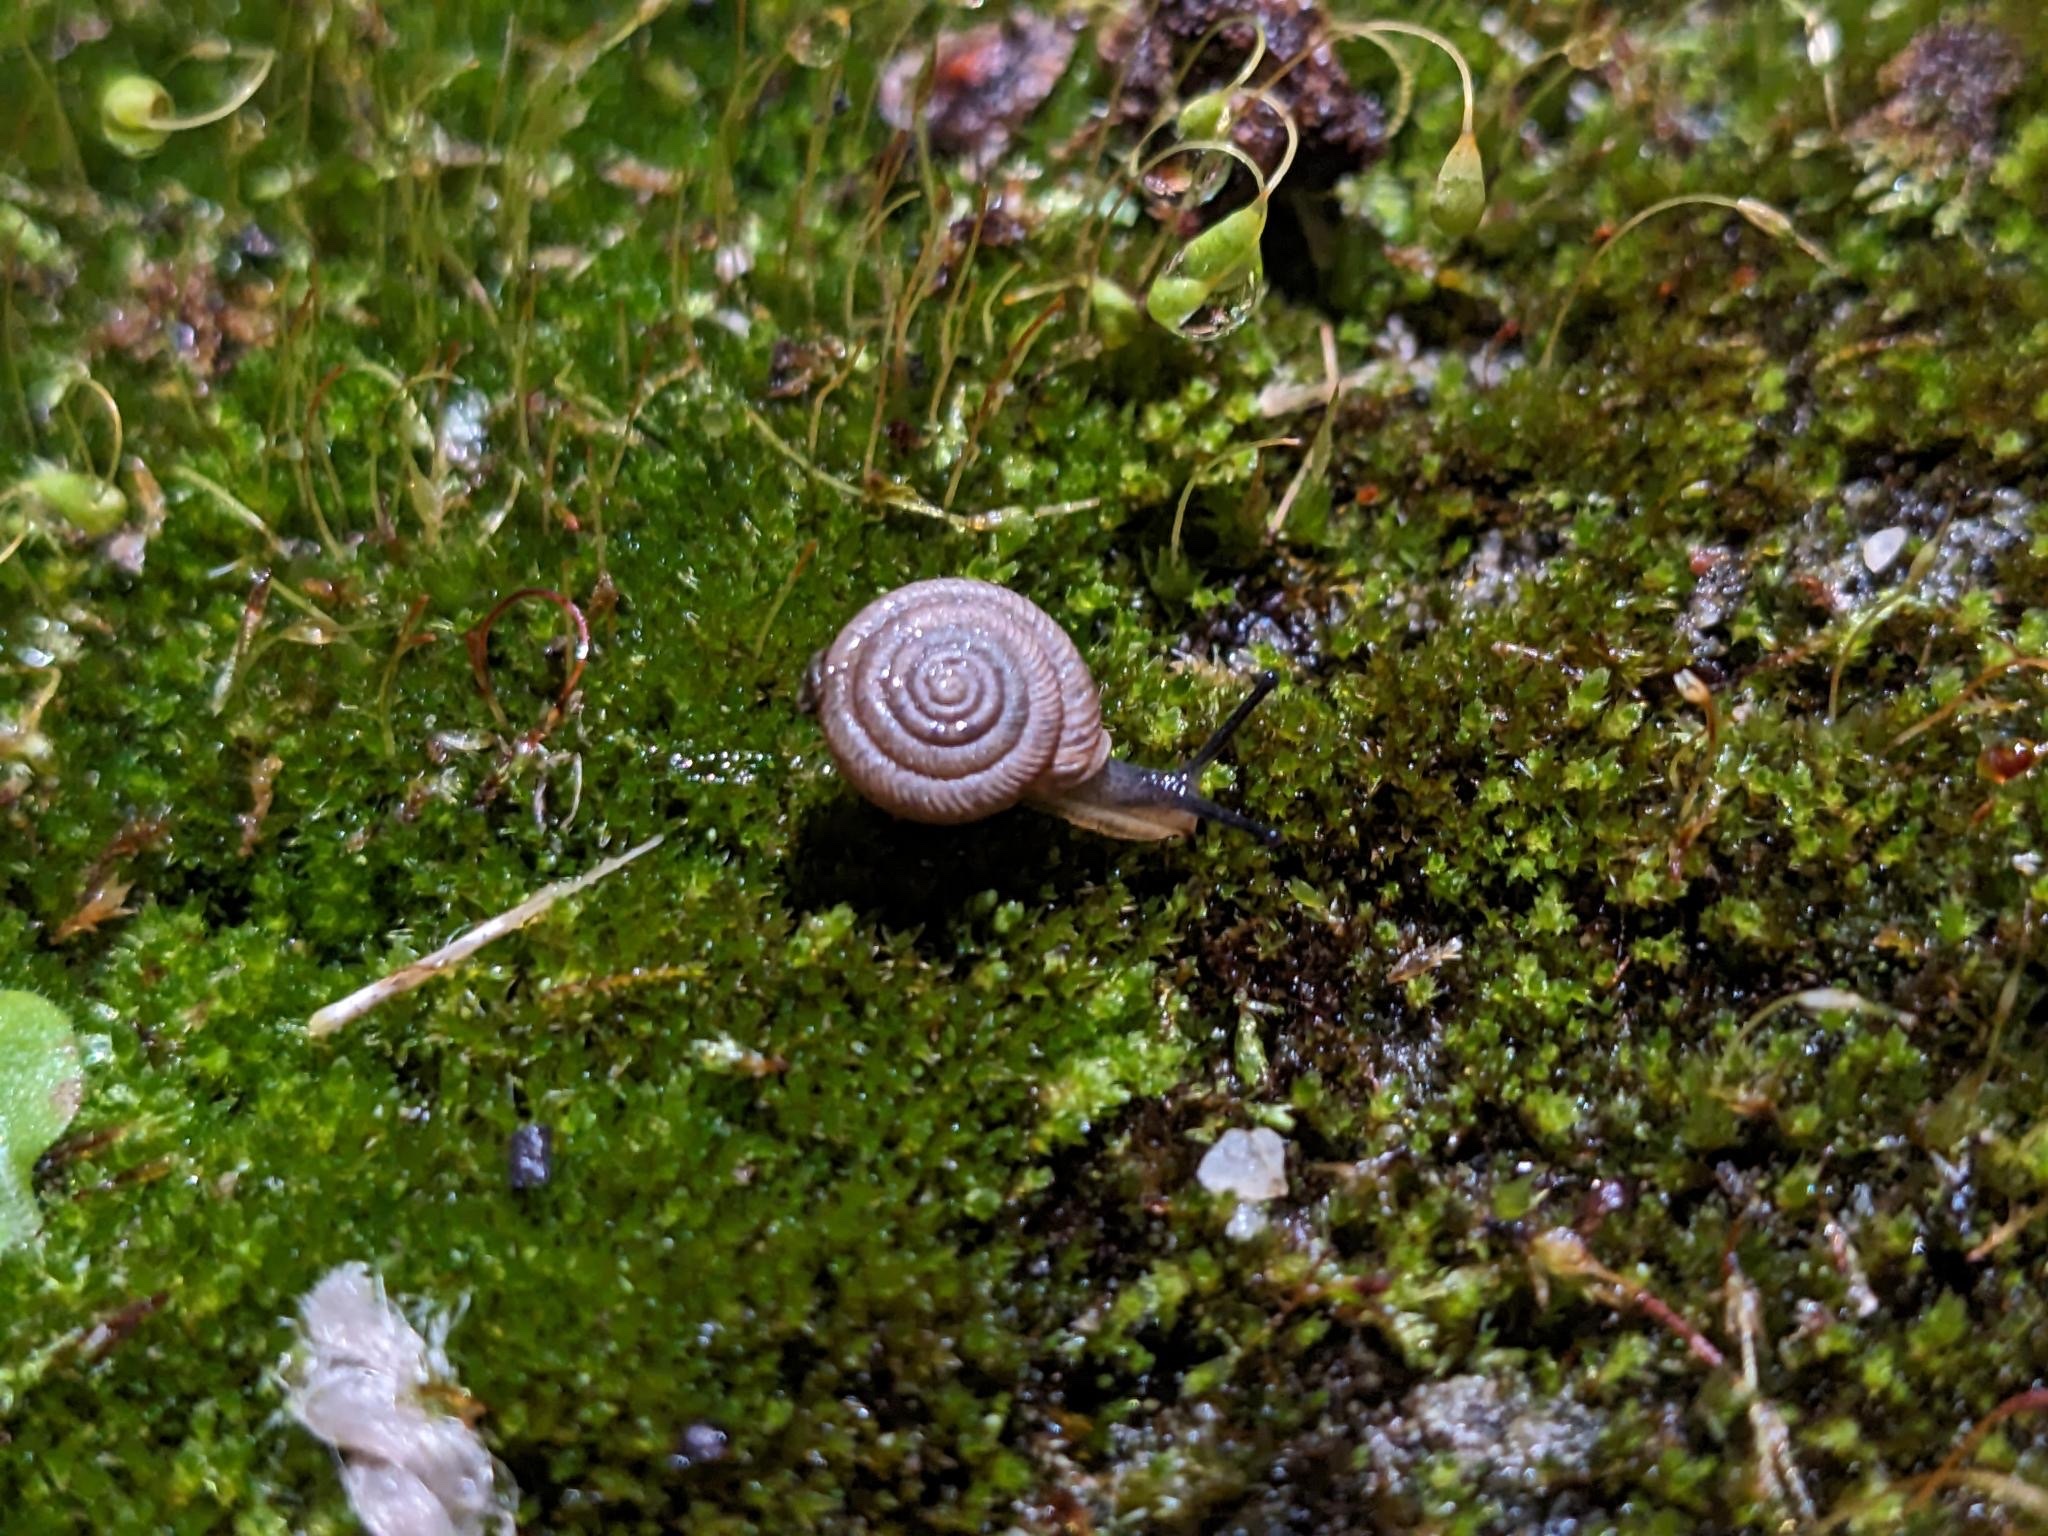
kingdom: Animalia
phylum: Mollusca
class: Gastropoda
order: Stylommatophora
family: Polygyridae
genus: Polygyra
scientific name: Polygyra cereolus
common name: Southern flatcone snail
